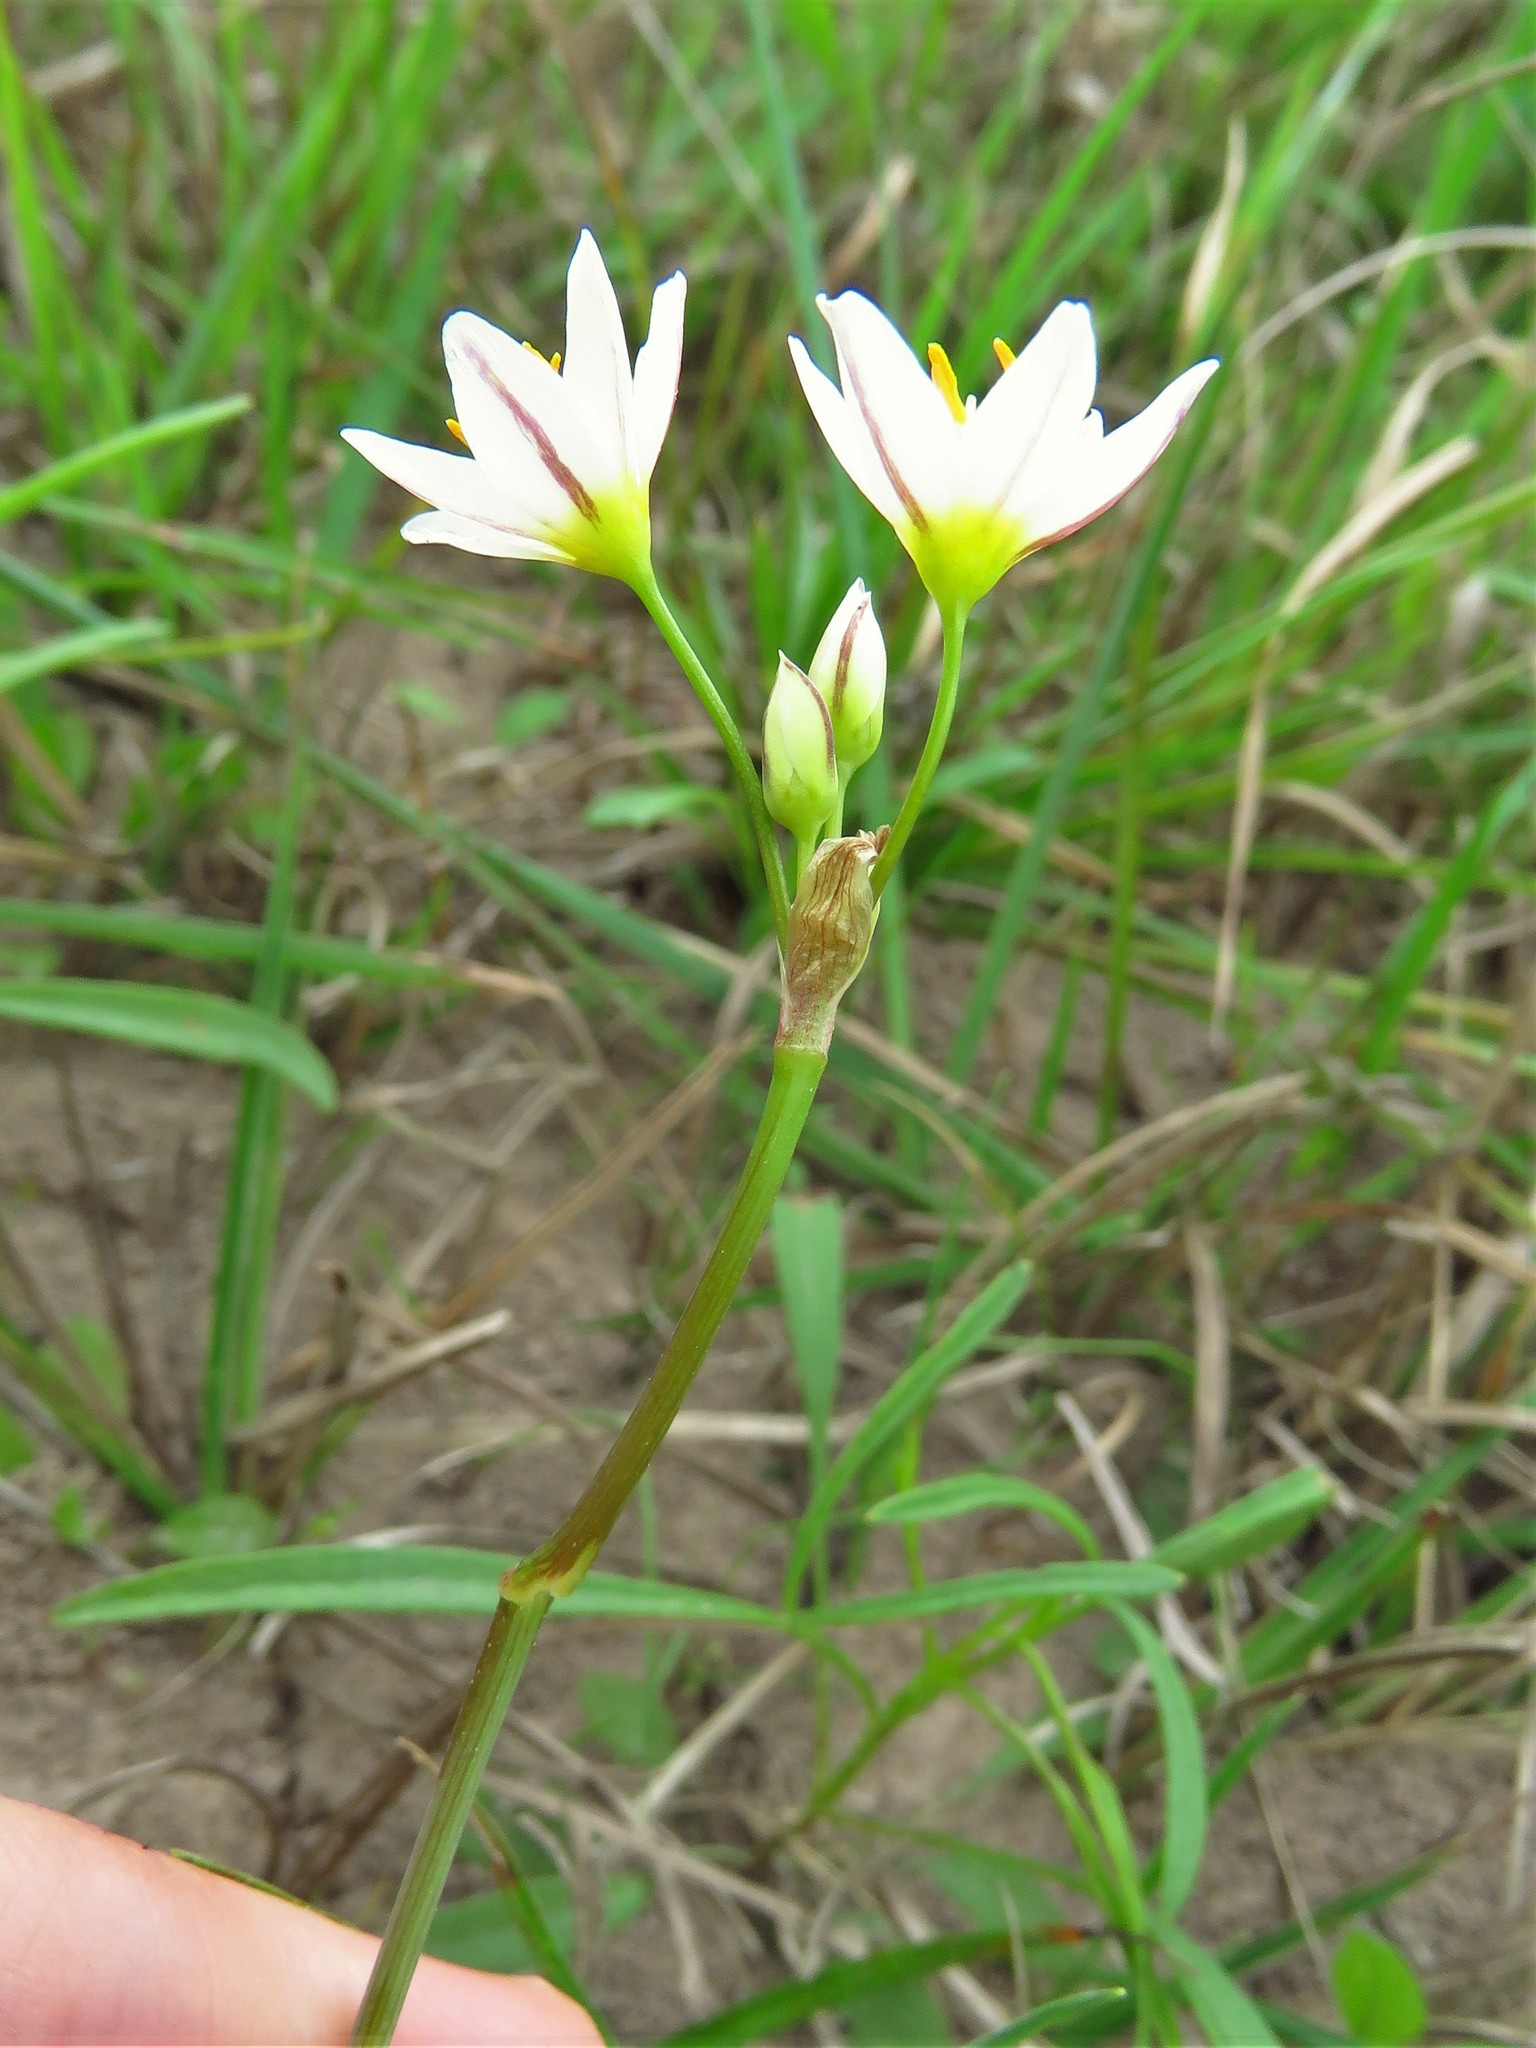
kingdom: Plantae
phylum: Tracheophyta
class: Liliopsida
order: Asparagales
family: Amaryllidaceae
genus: Nothoscordum
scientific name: Nothoscordum bivalve
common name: Crow-poison
